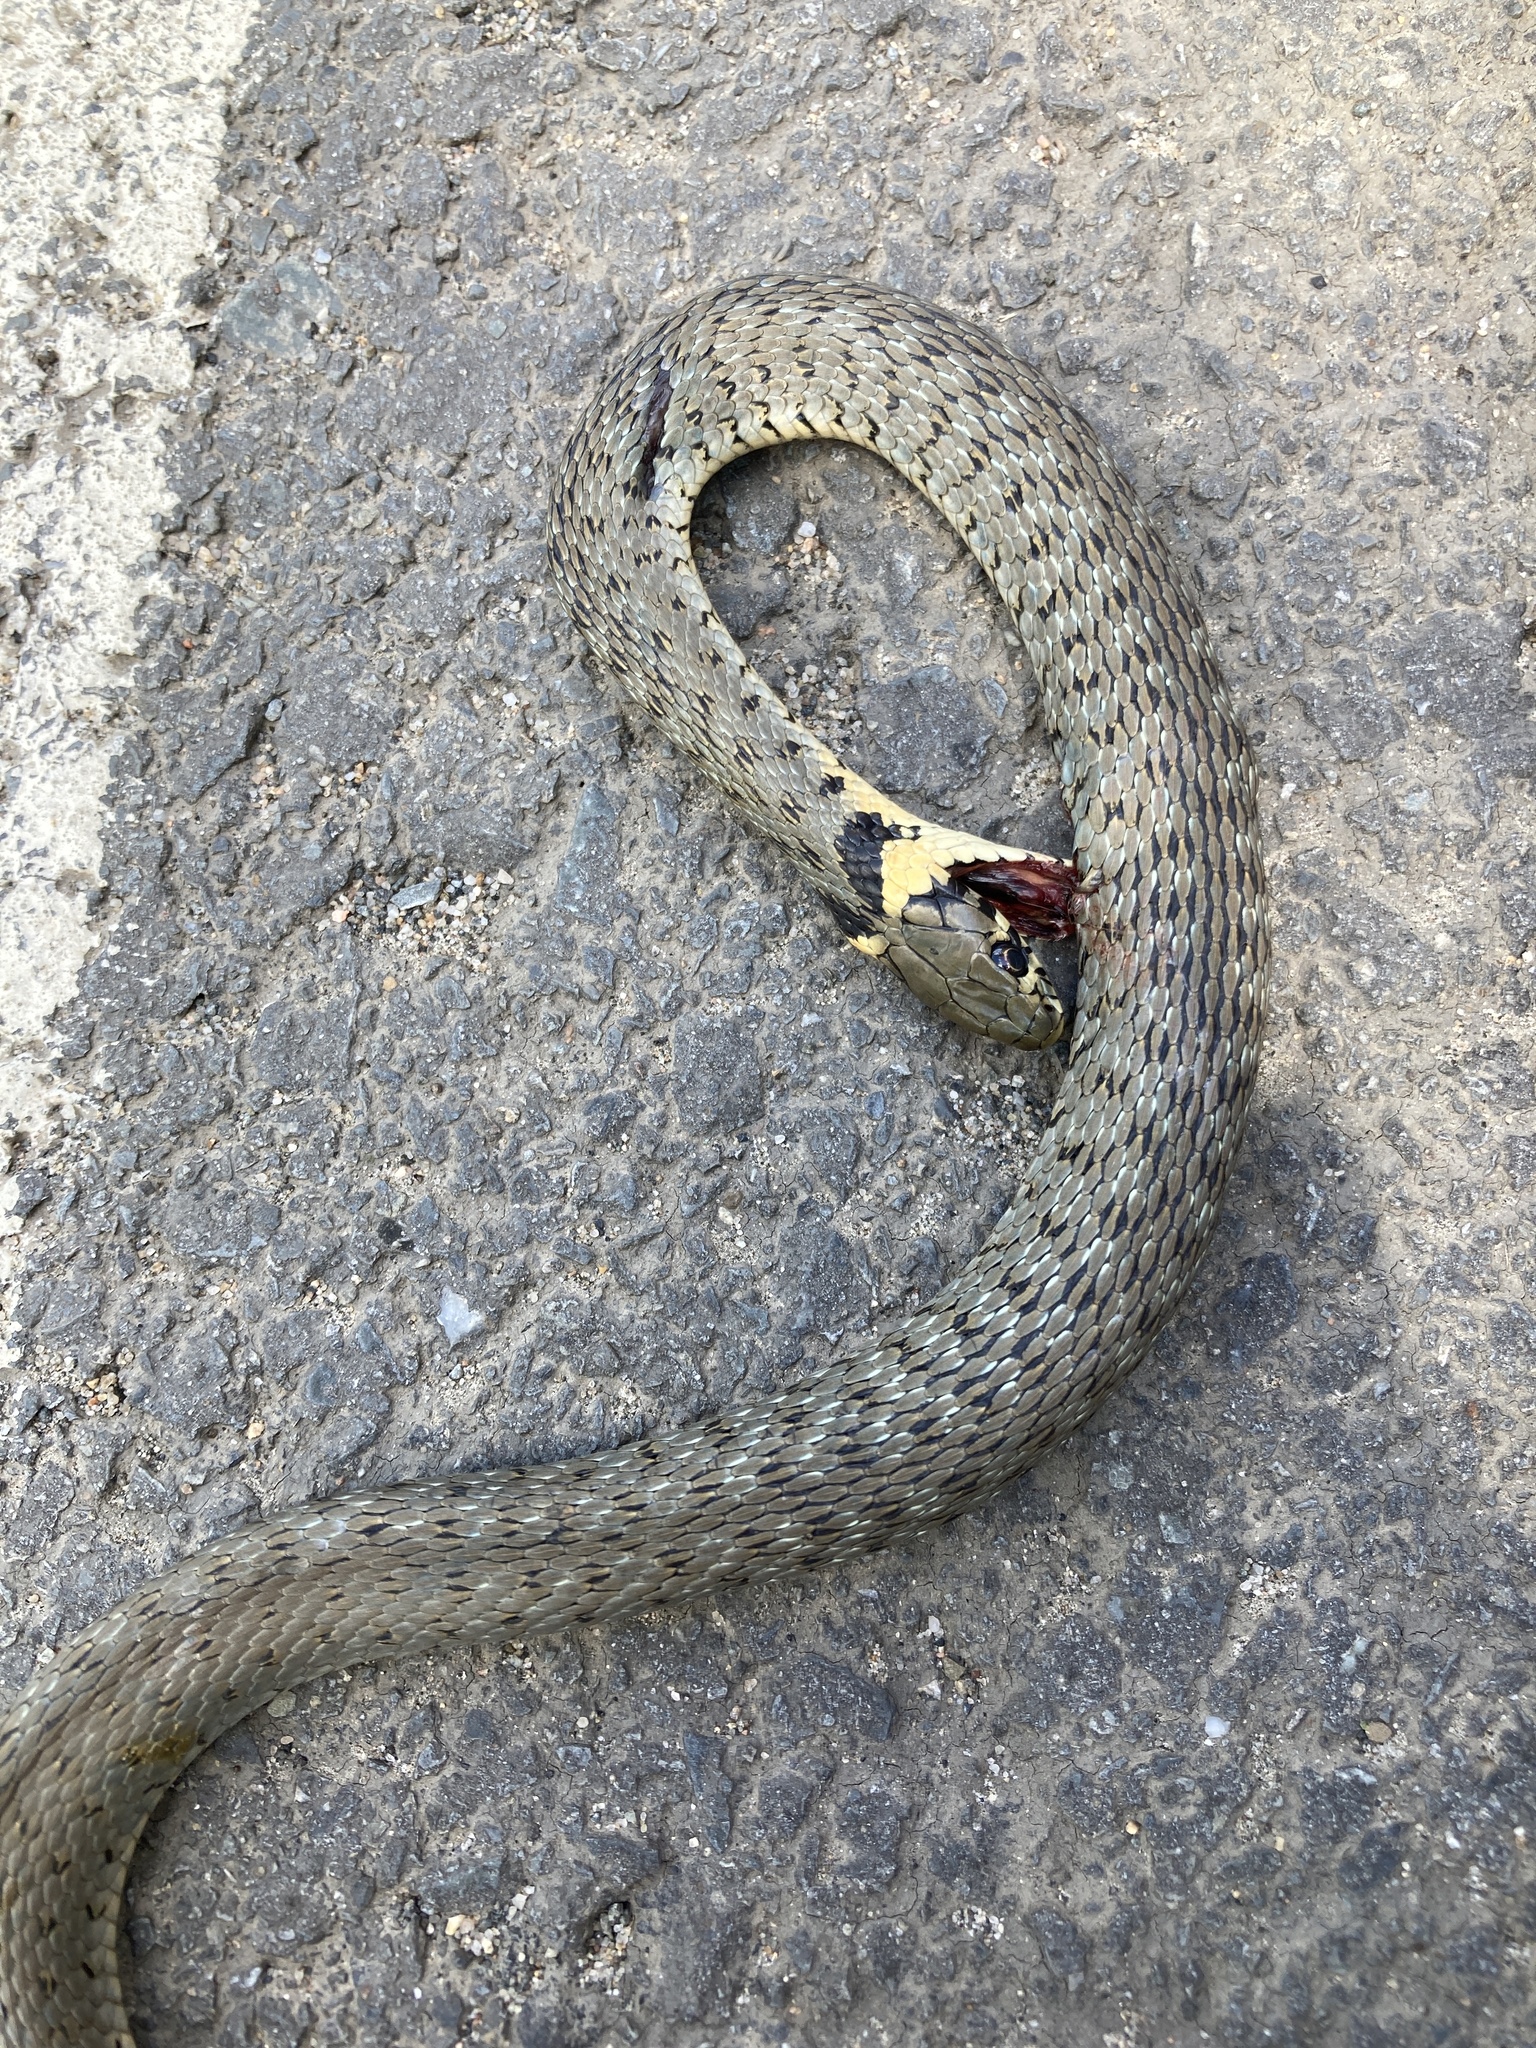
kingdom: Animalia
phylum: Chordata
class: Squamata
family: Colubridae
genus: Natrix
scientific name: Natrix natrix
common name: Grass snake
